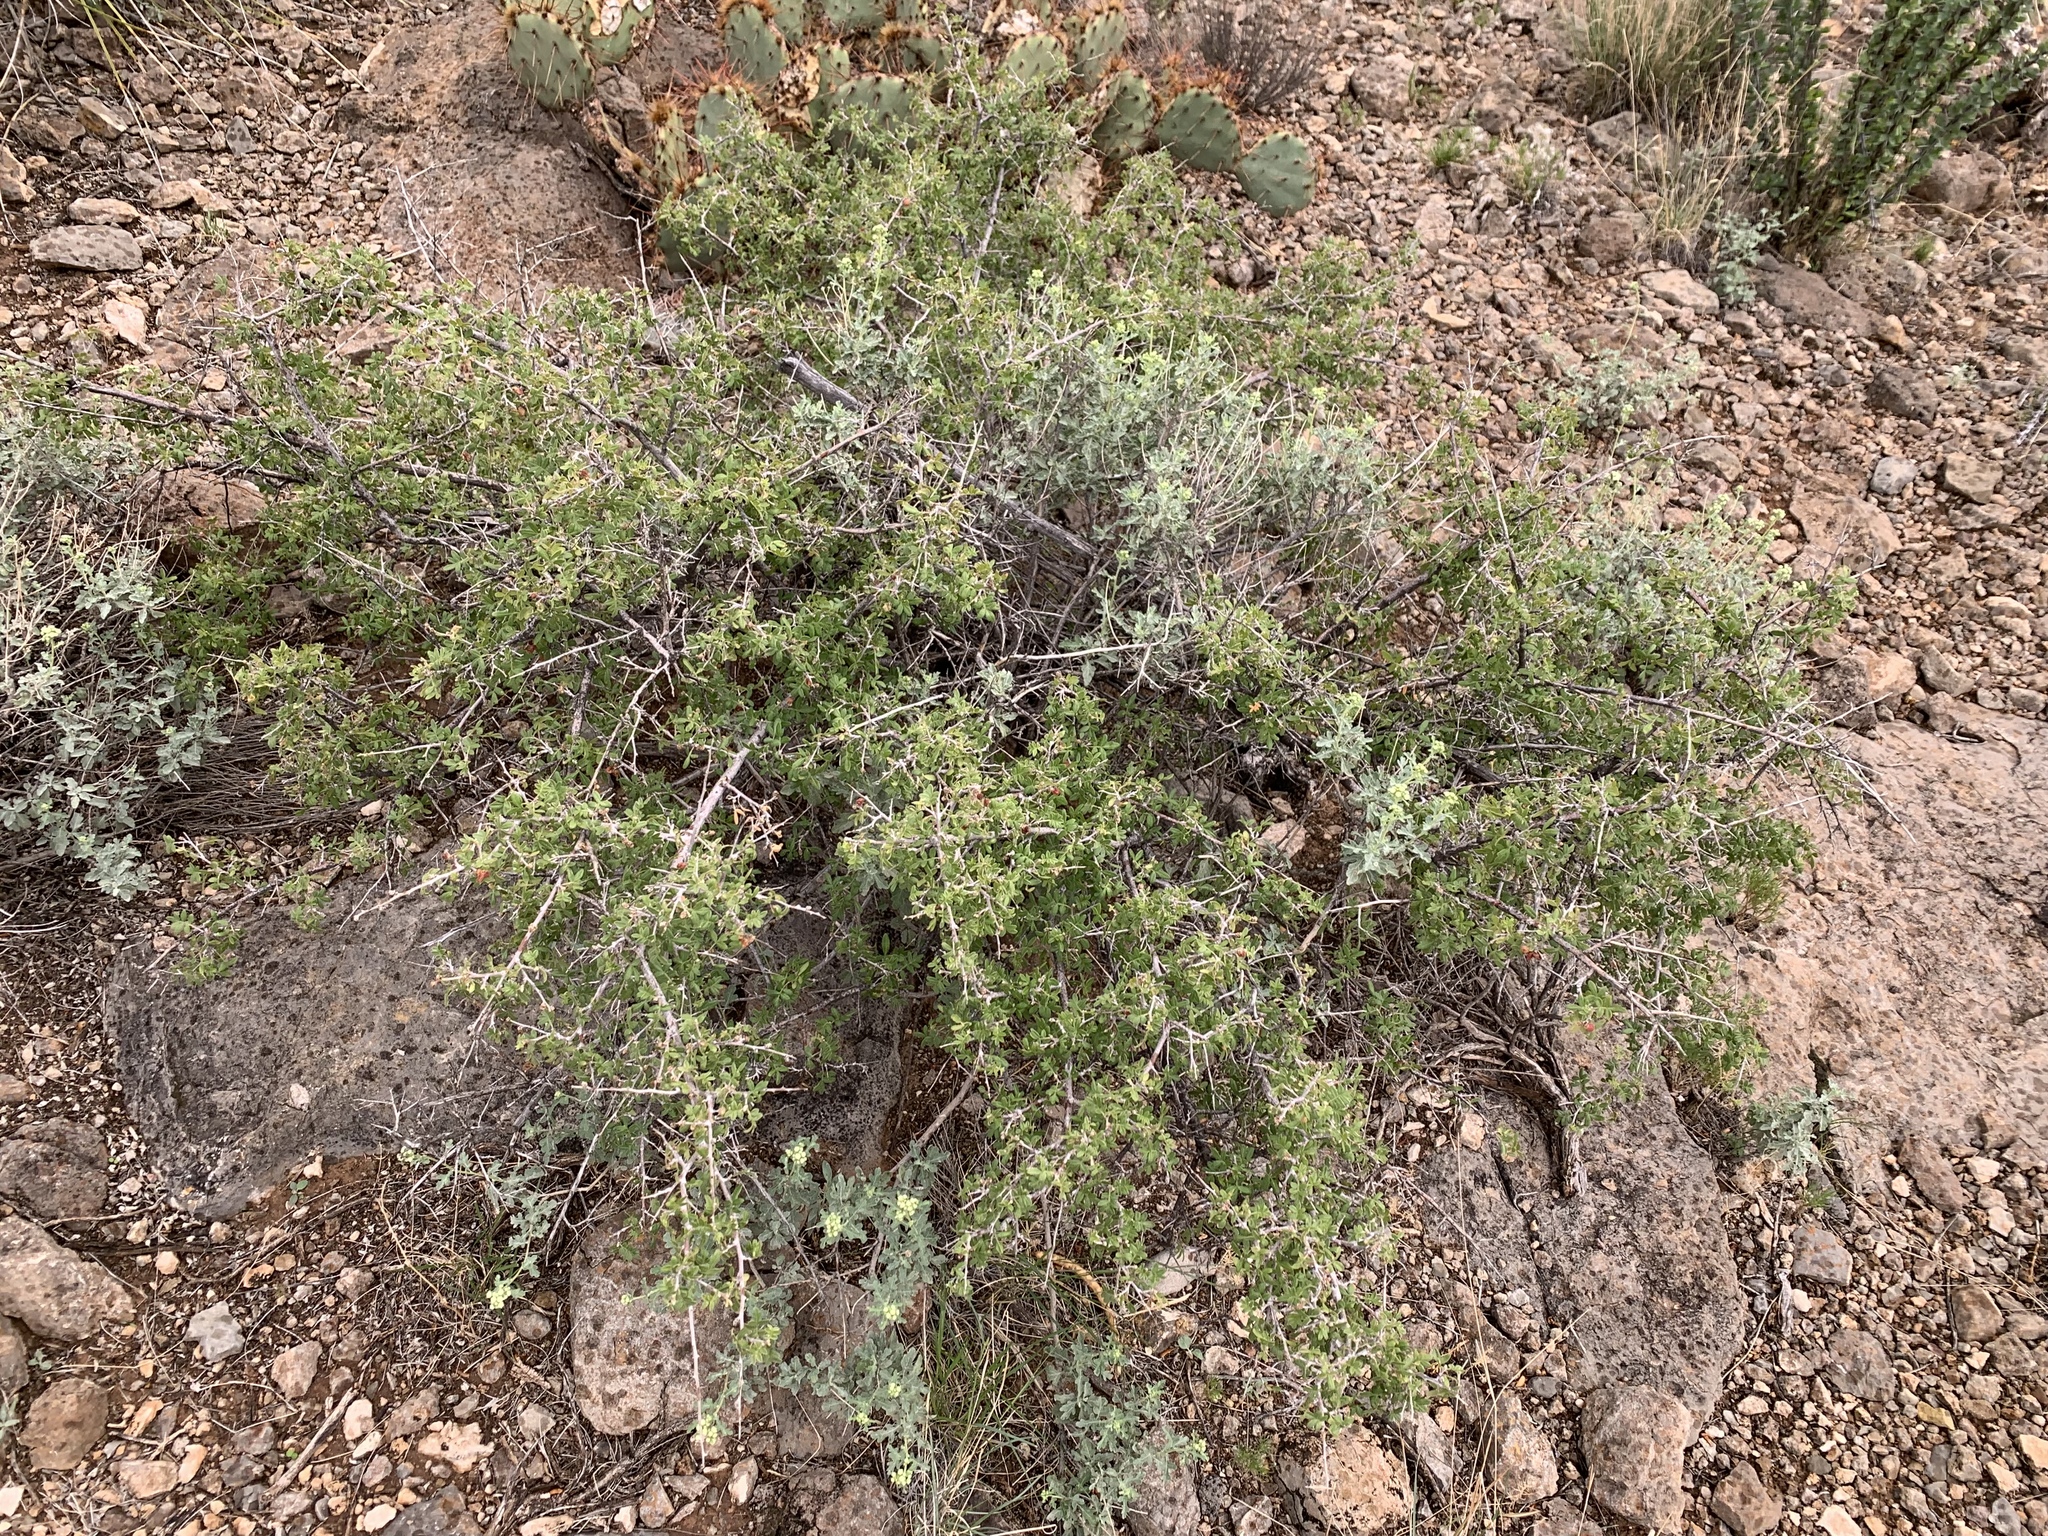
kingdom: Plantae
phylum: Tracheophyta
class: Magnoliopsida
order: Sapindales
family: Anacardiaceae
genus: Rhus
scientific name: Rhus microphylla
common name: Desert sumac
